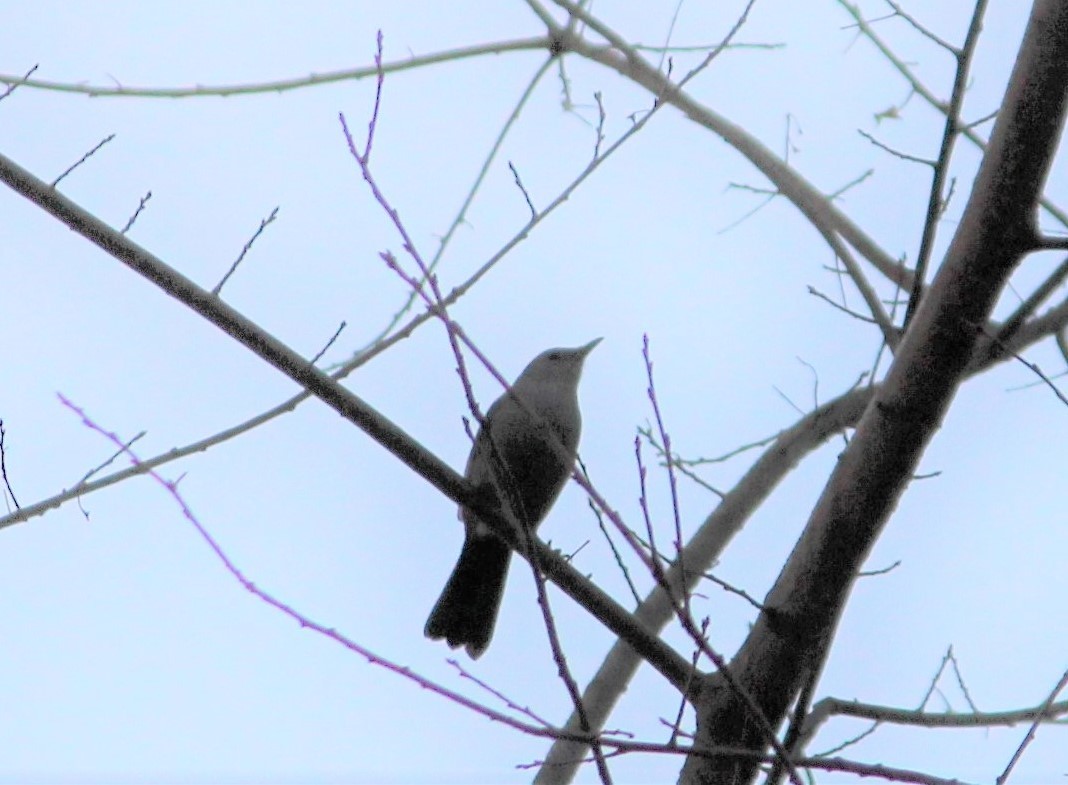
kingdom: Animalia
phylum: Chordata
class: Aves
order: Passeriformes
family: Mimidae
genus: Dumetella
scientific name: Dumetella carolinensis
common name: Gray catbird
